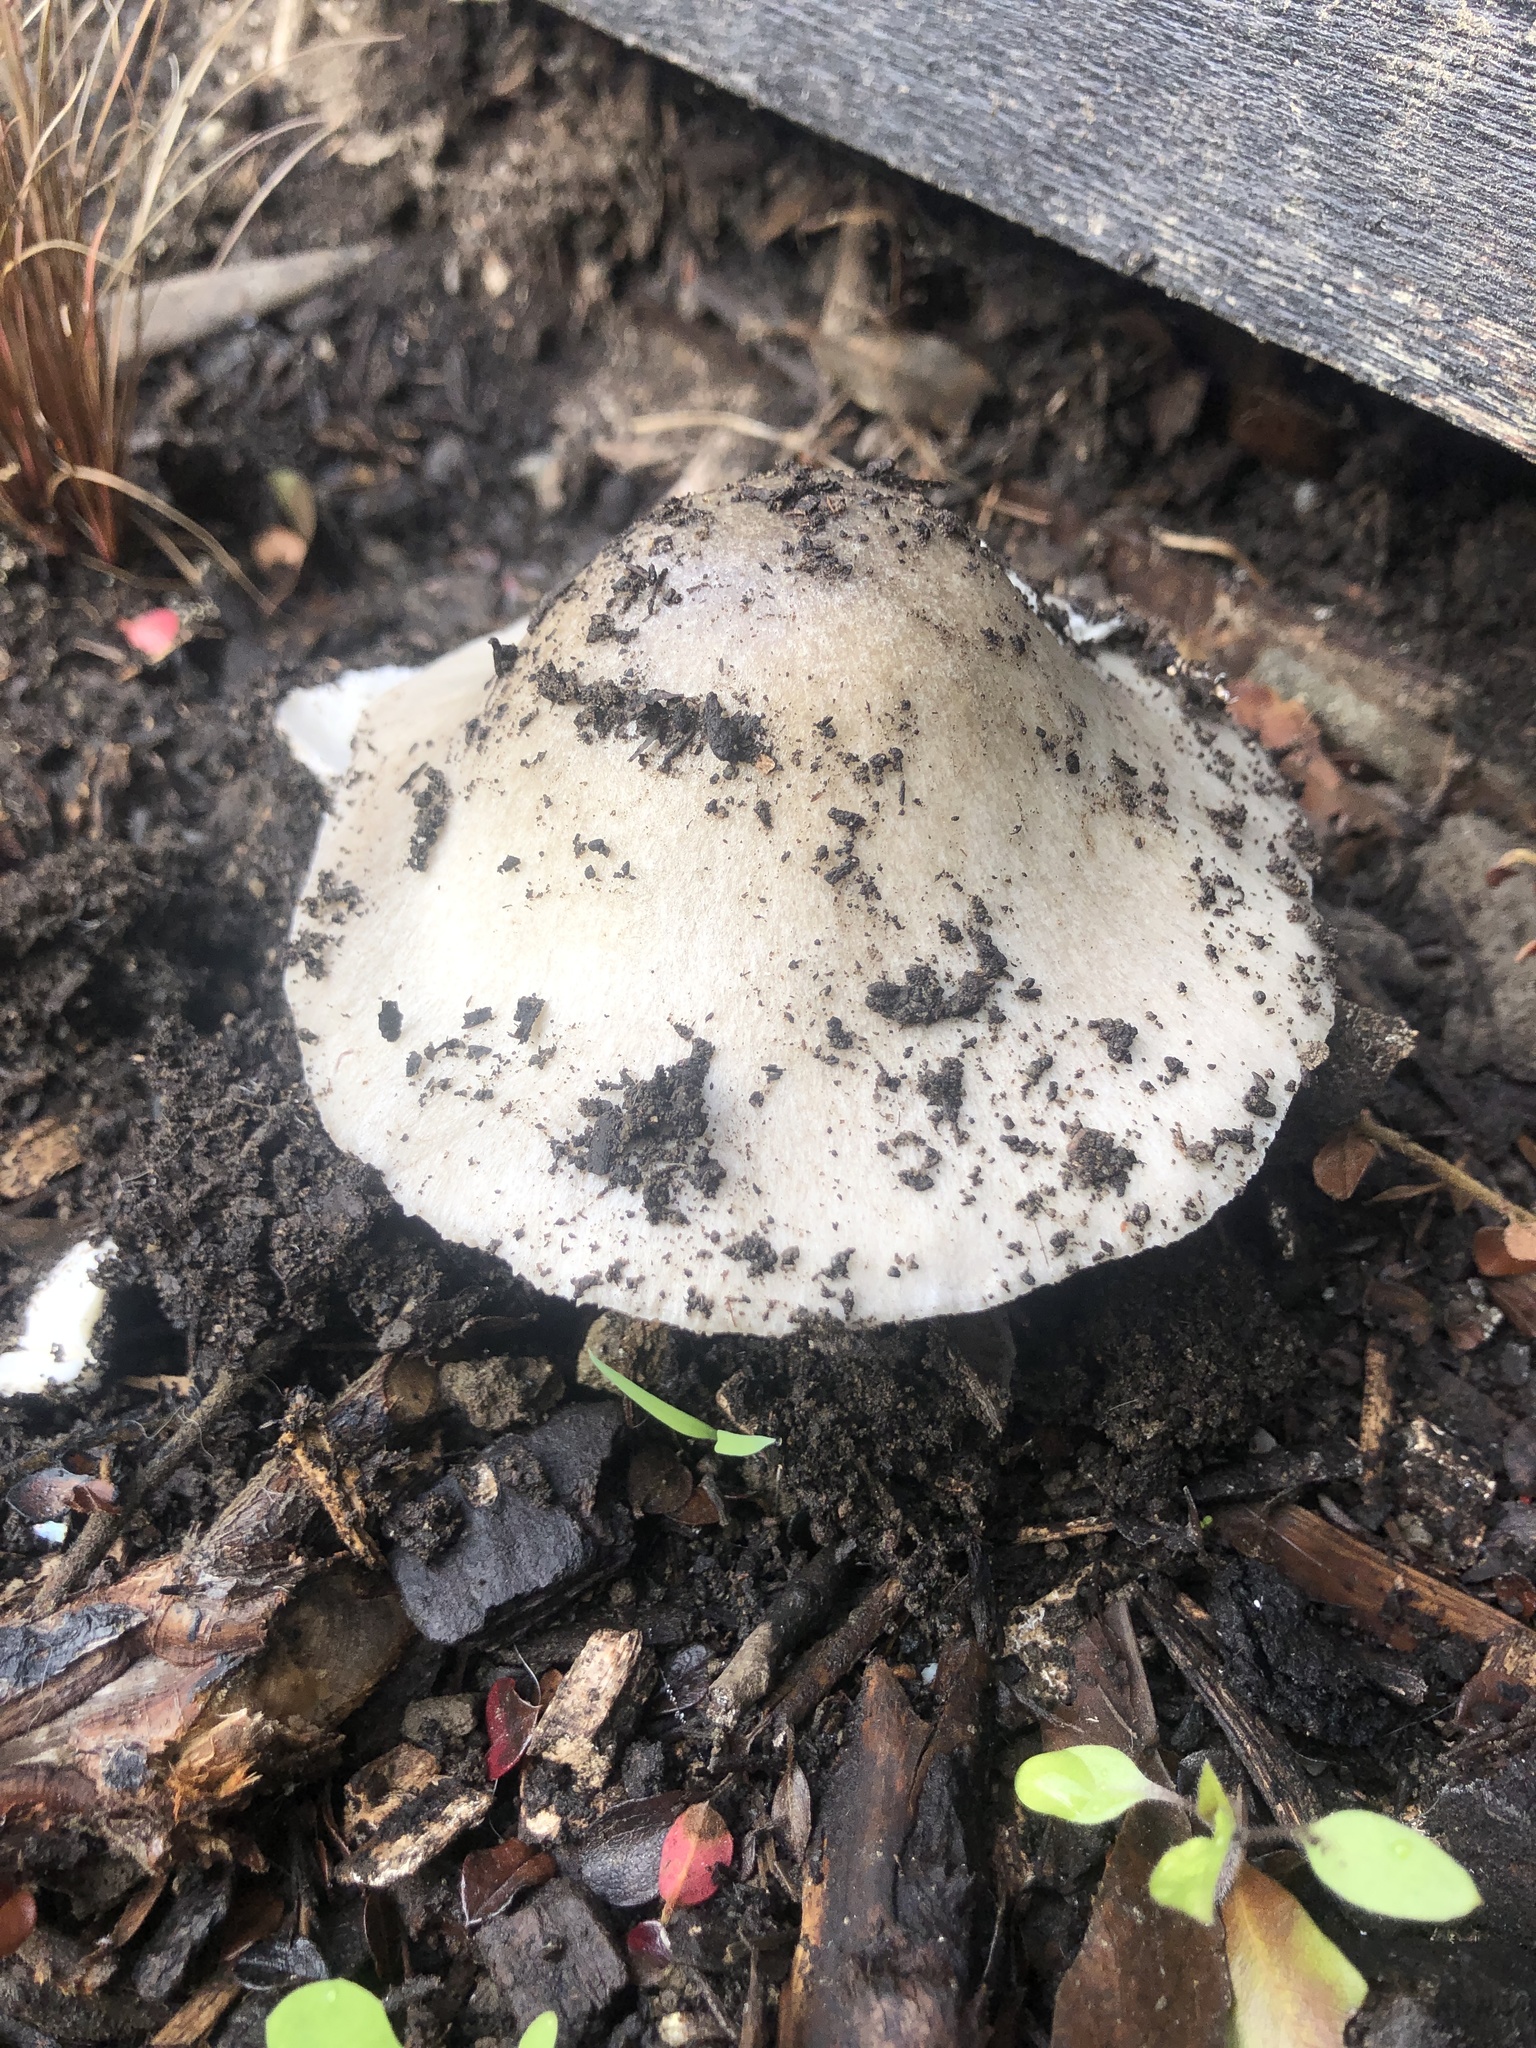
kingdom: Fungi
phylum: Basidiomycota
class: Agaricomycetes
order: Agaricales
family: Pluteaceae
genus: Volvopluteus
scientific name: Volvopluteus gloiocephalus
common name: Stubble rosegill
